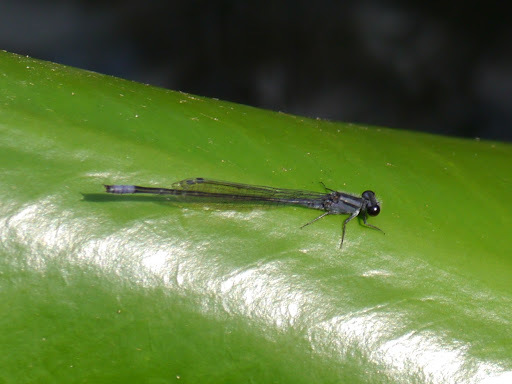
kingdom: Animalia
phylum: Arthropoda
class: Insecta
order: Odonata
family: Coenagrionidae
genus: Enallagma
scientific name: Enallagma cardenium
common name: Purple bluet
